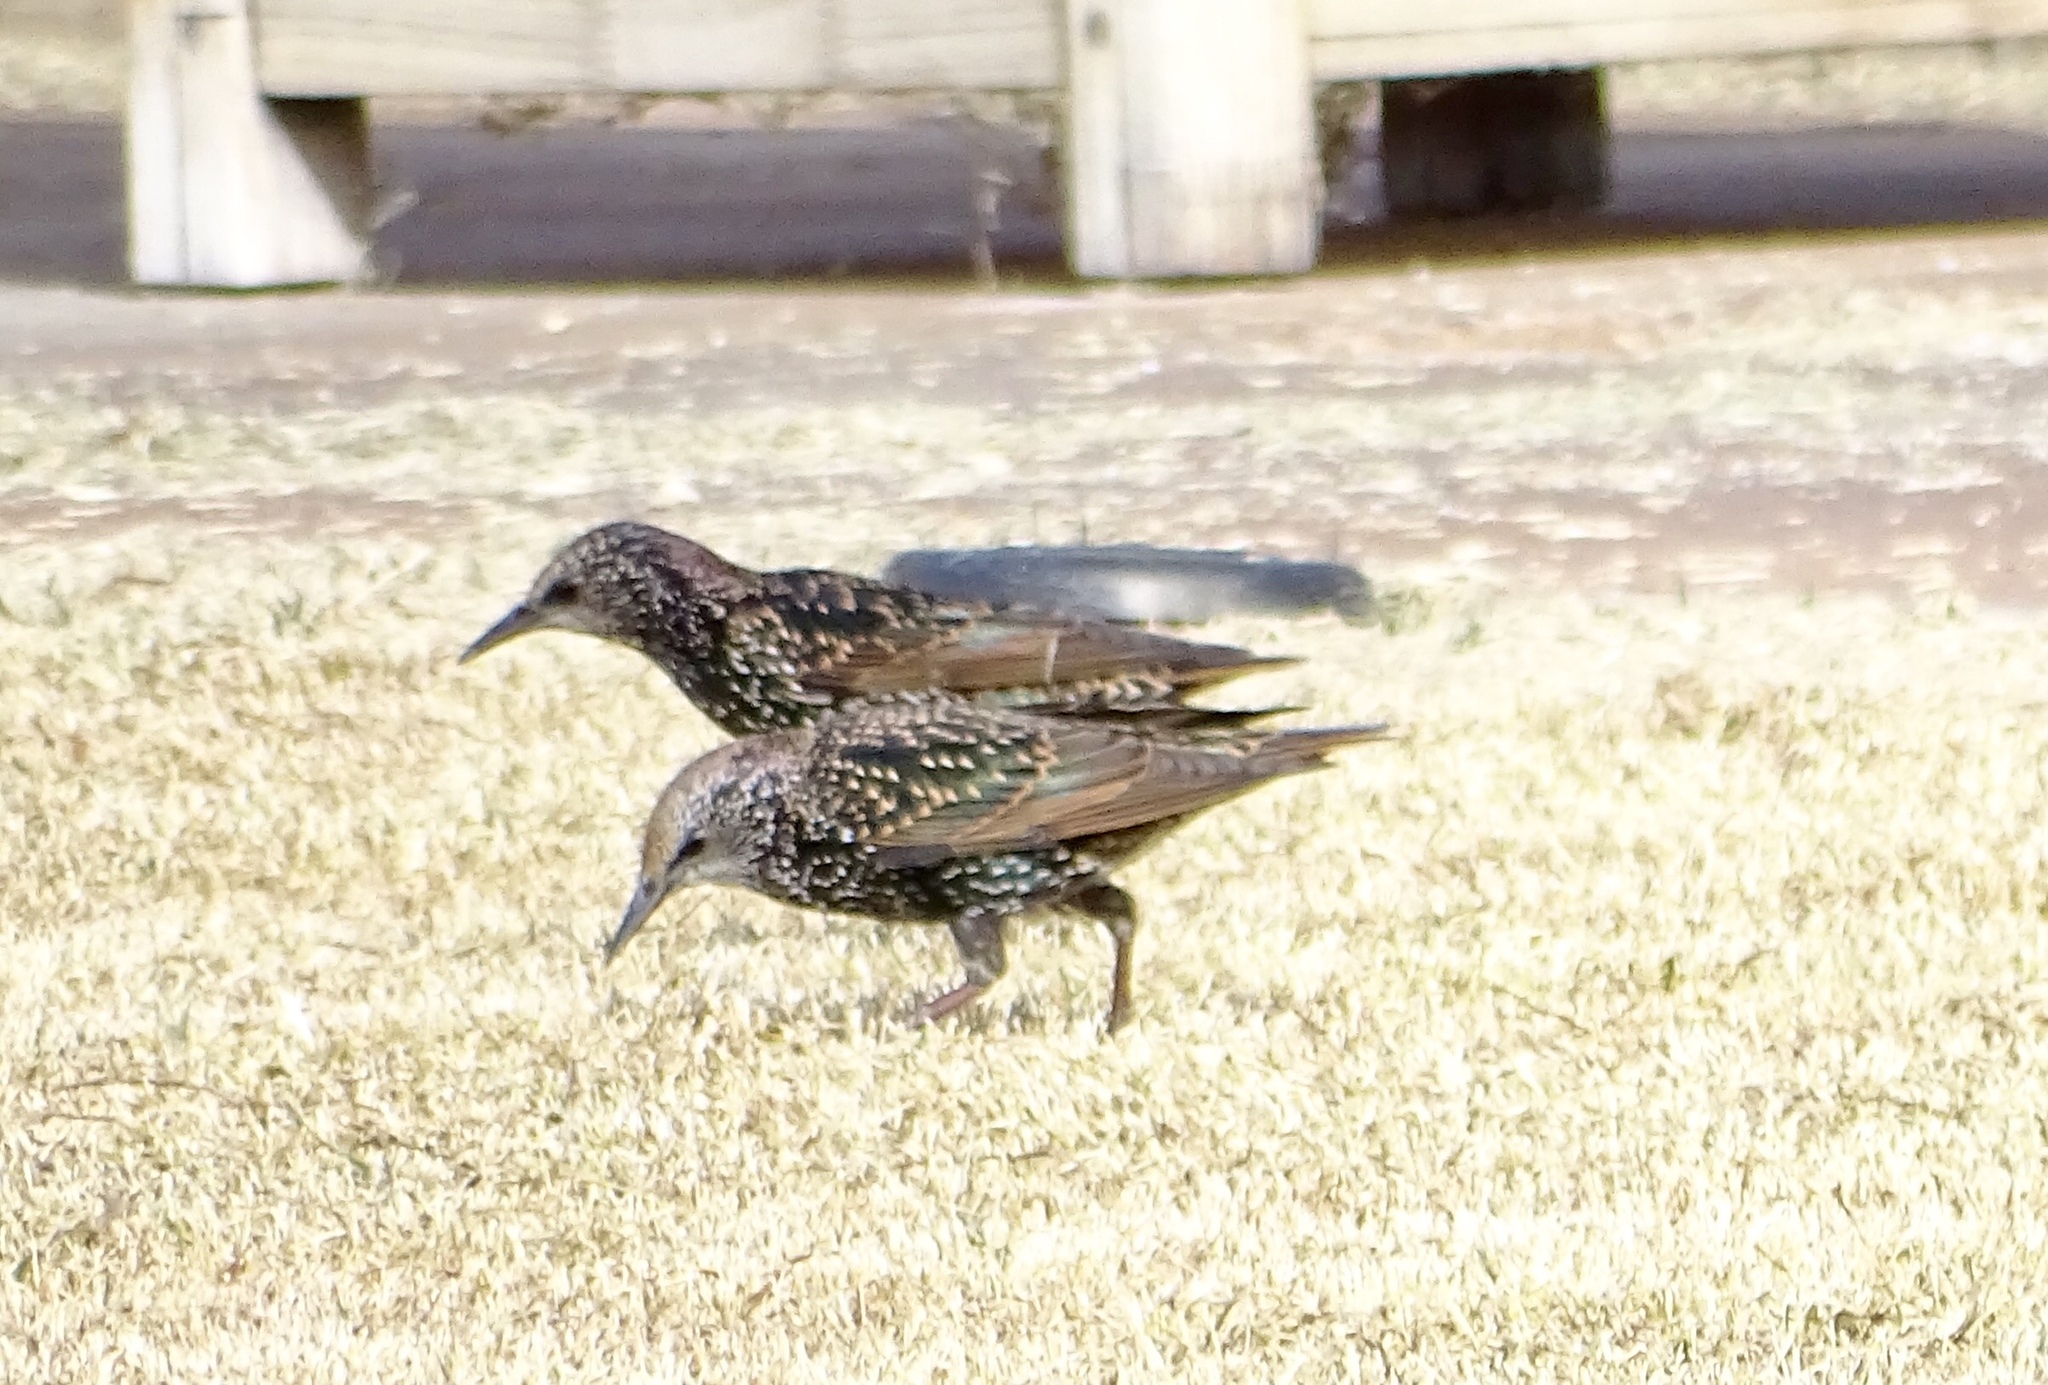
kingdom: Animalia
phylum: Chordata
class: Aves
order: Passeriformes
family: Sturnidae
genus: Sturnus
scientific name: Sturnus vulgaris
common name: Common starling
